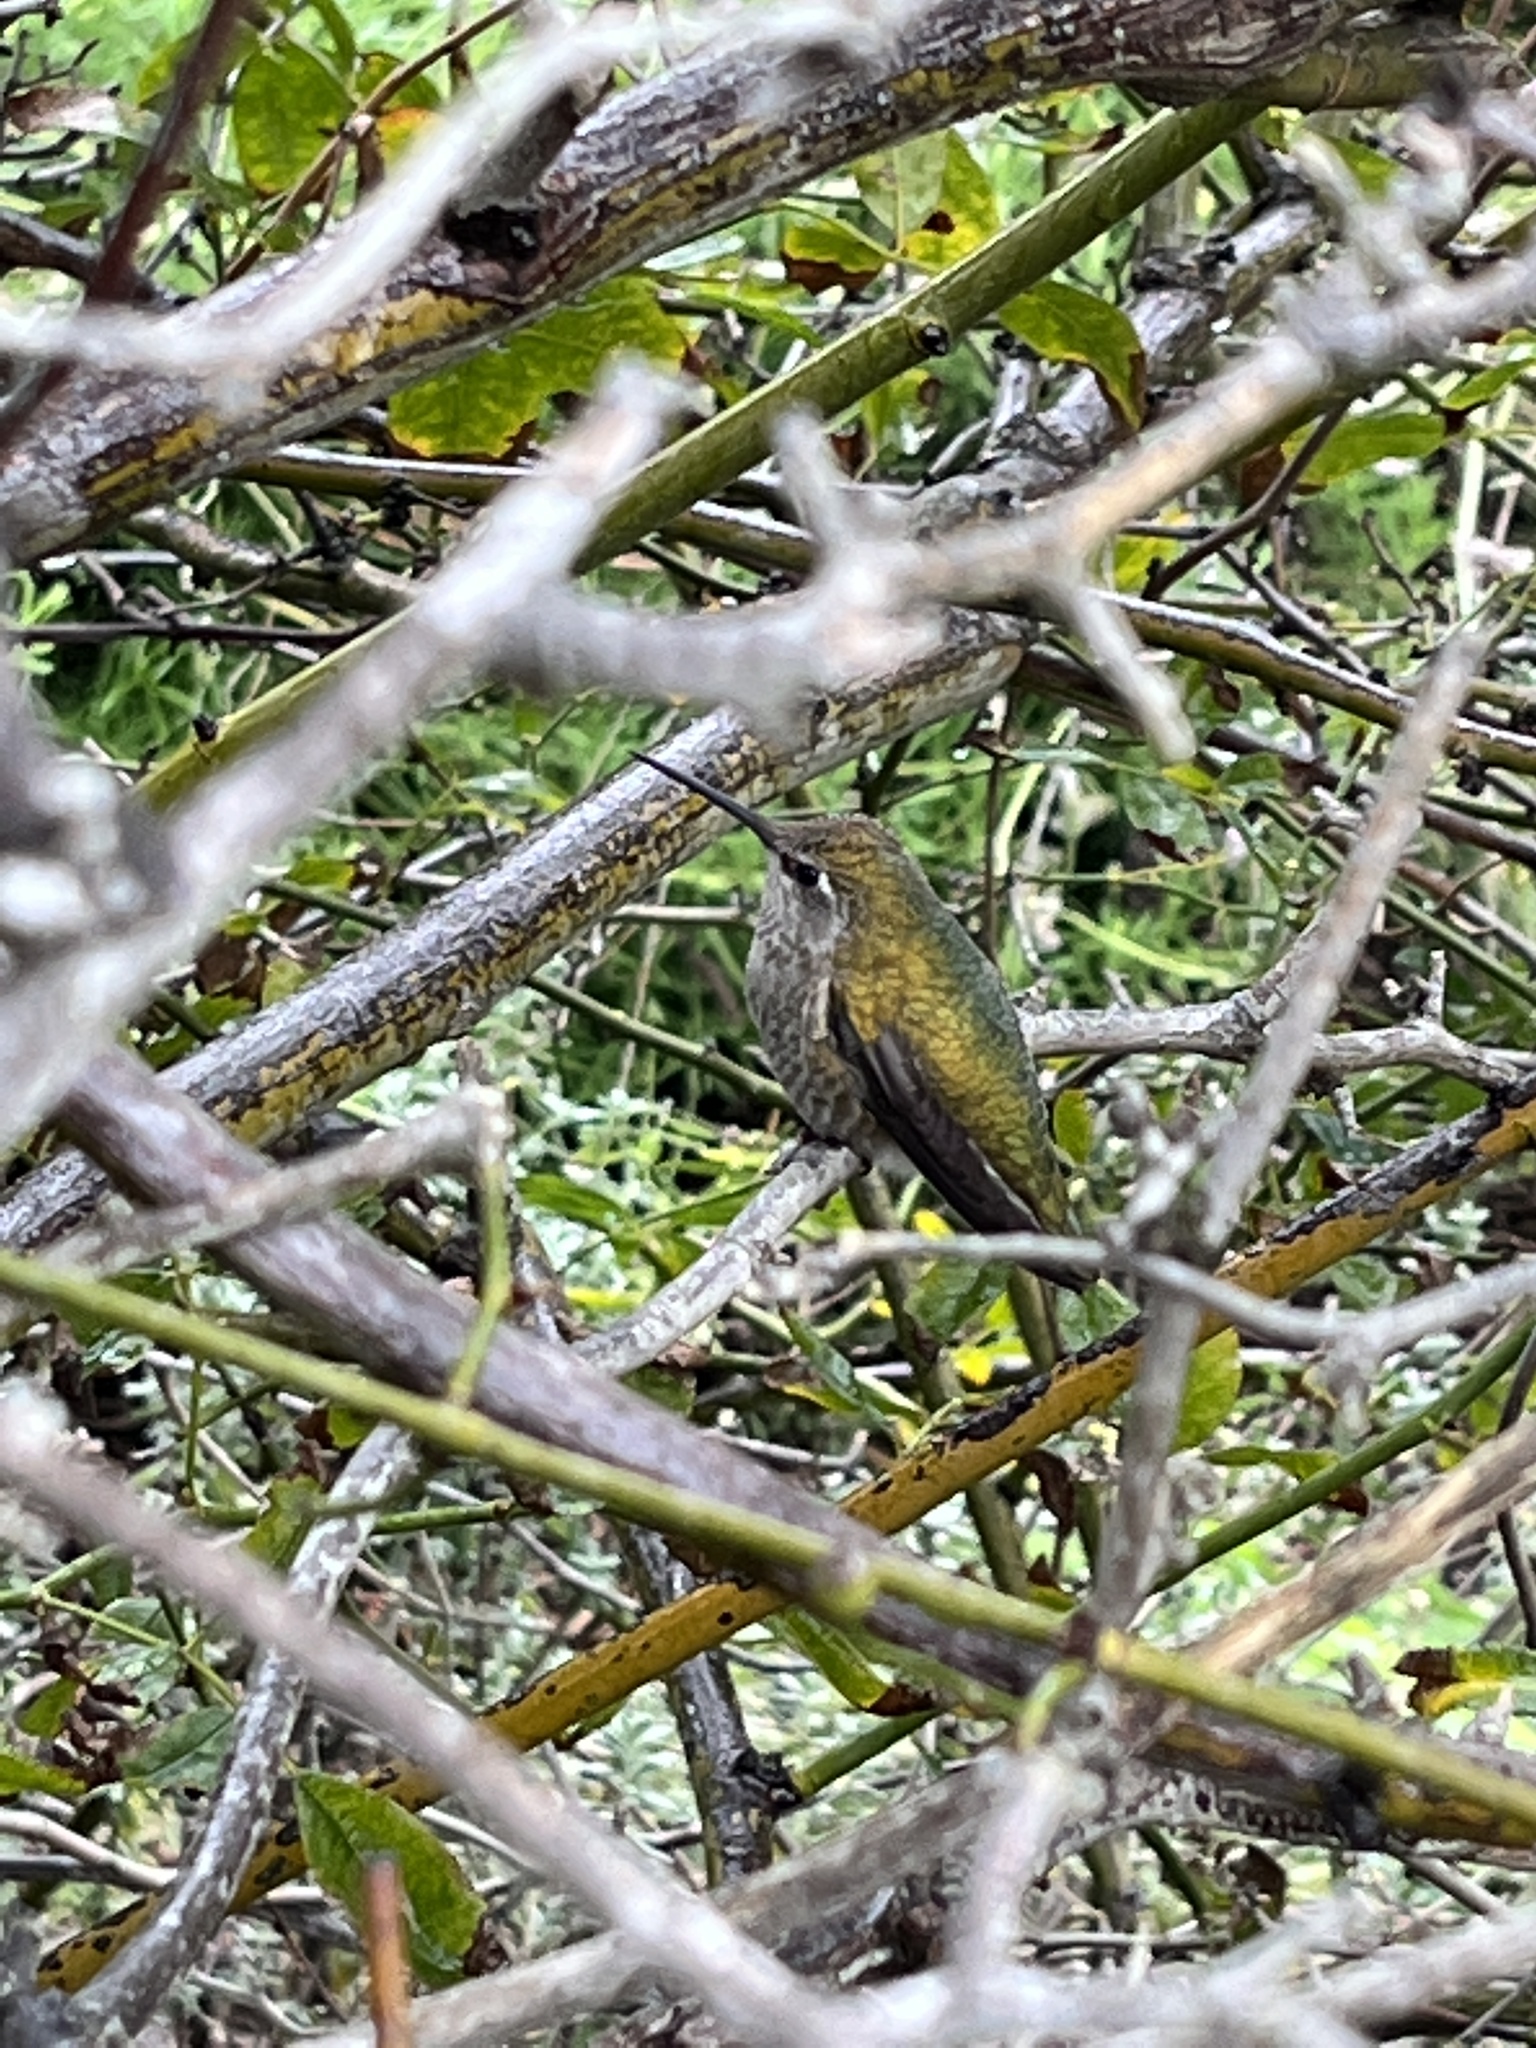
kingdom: Animalia
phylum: Chordata
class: Aves
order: Apodiformes
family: Trochilidae
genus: Calypte
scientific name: Calypte anna
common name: Anna's hummingbird
